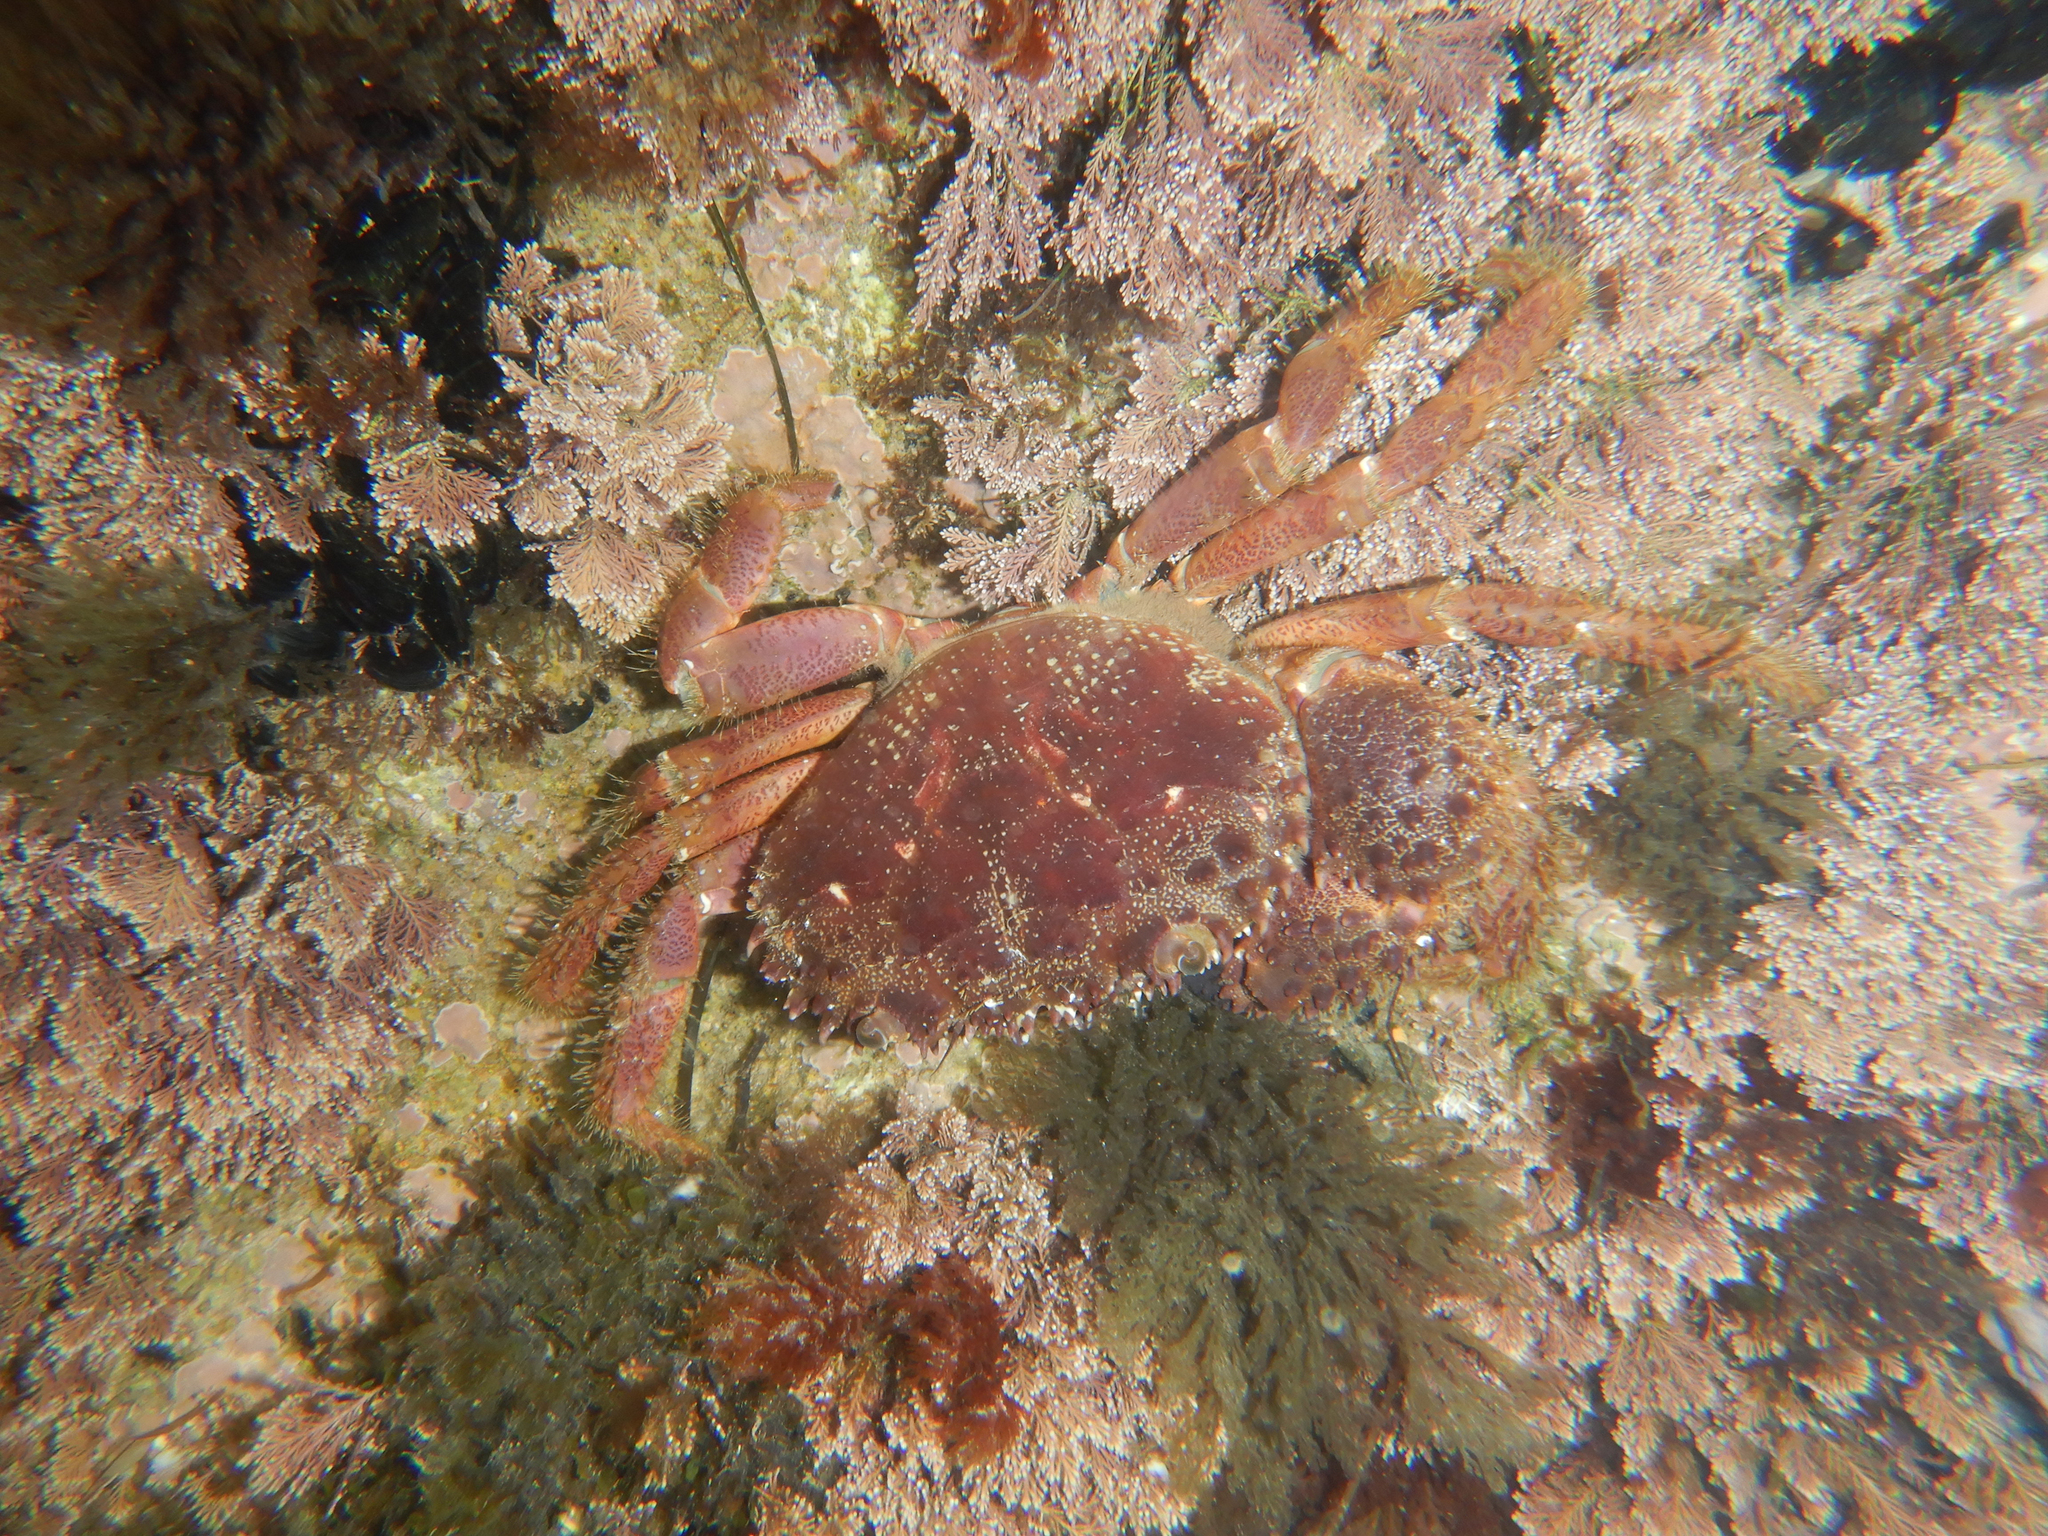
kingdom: Animalia
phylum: Arthropoda
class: Malacostraca
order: Decapoda
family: Eriphiidae
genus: Eriphia
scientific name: Eriphia verrucosa
